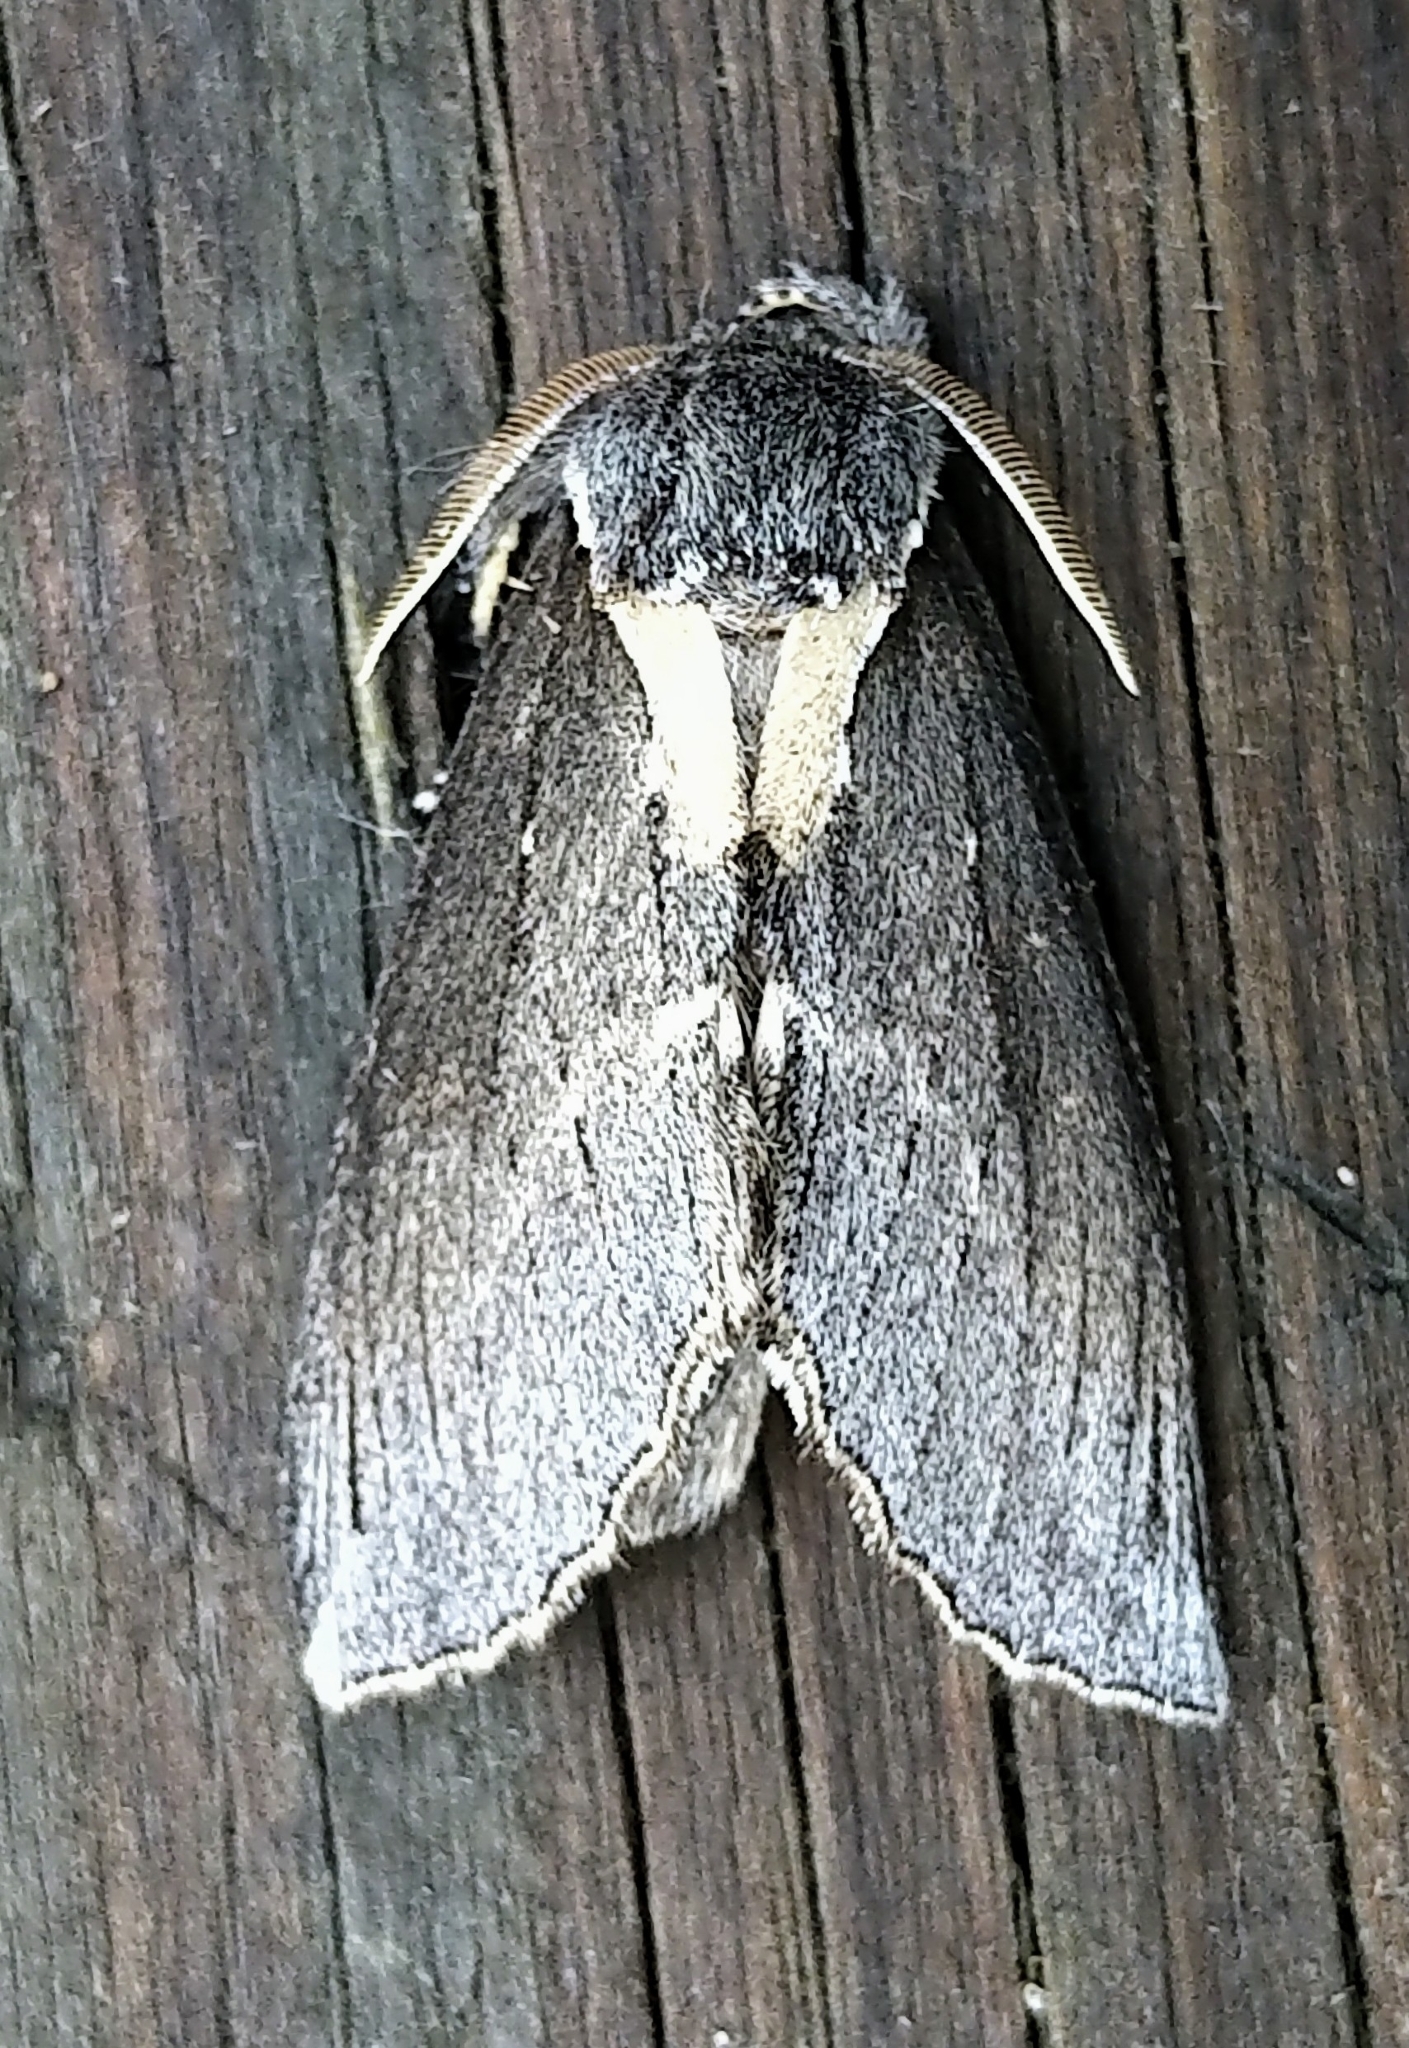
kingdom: Animalia
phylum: Arthropoda
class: Insecta
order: Lepidoptera
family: Notodontidae
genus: Pheosidea
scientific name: Pheosidea elegans
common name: Elegant prominent
